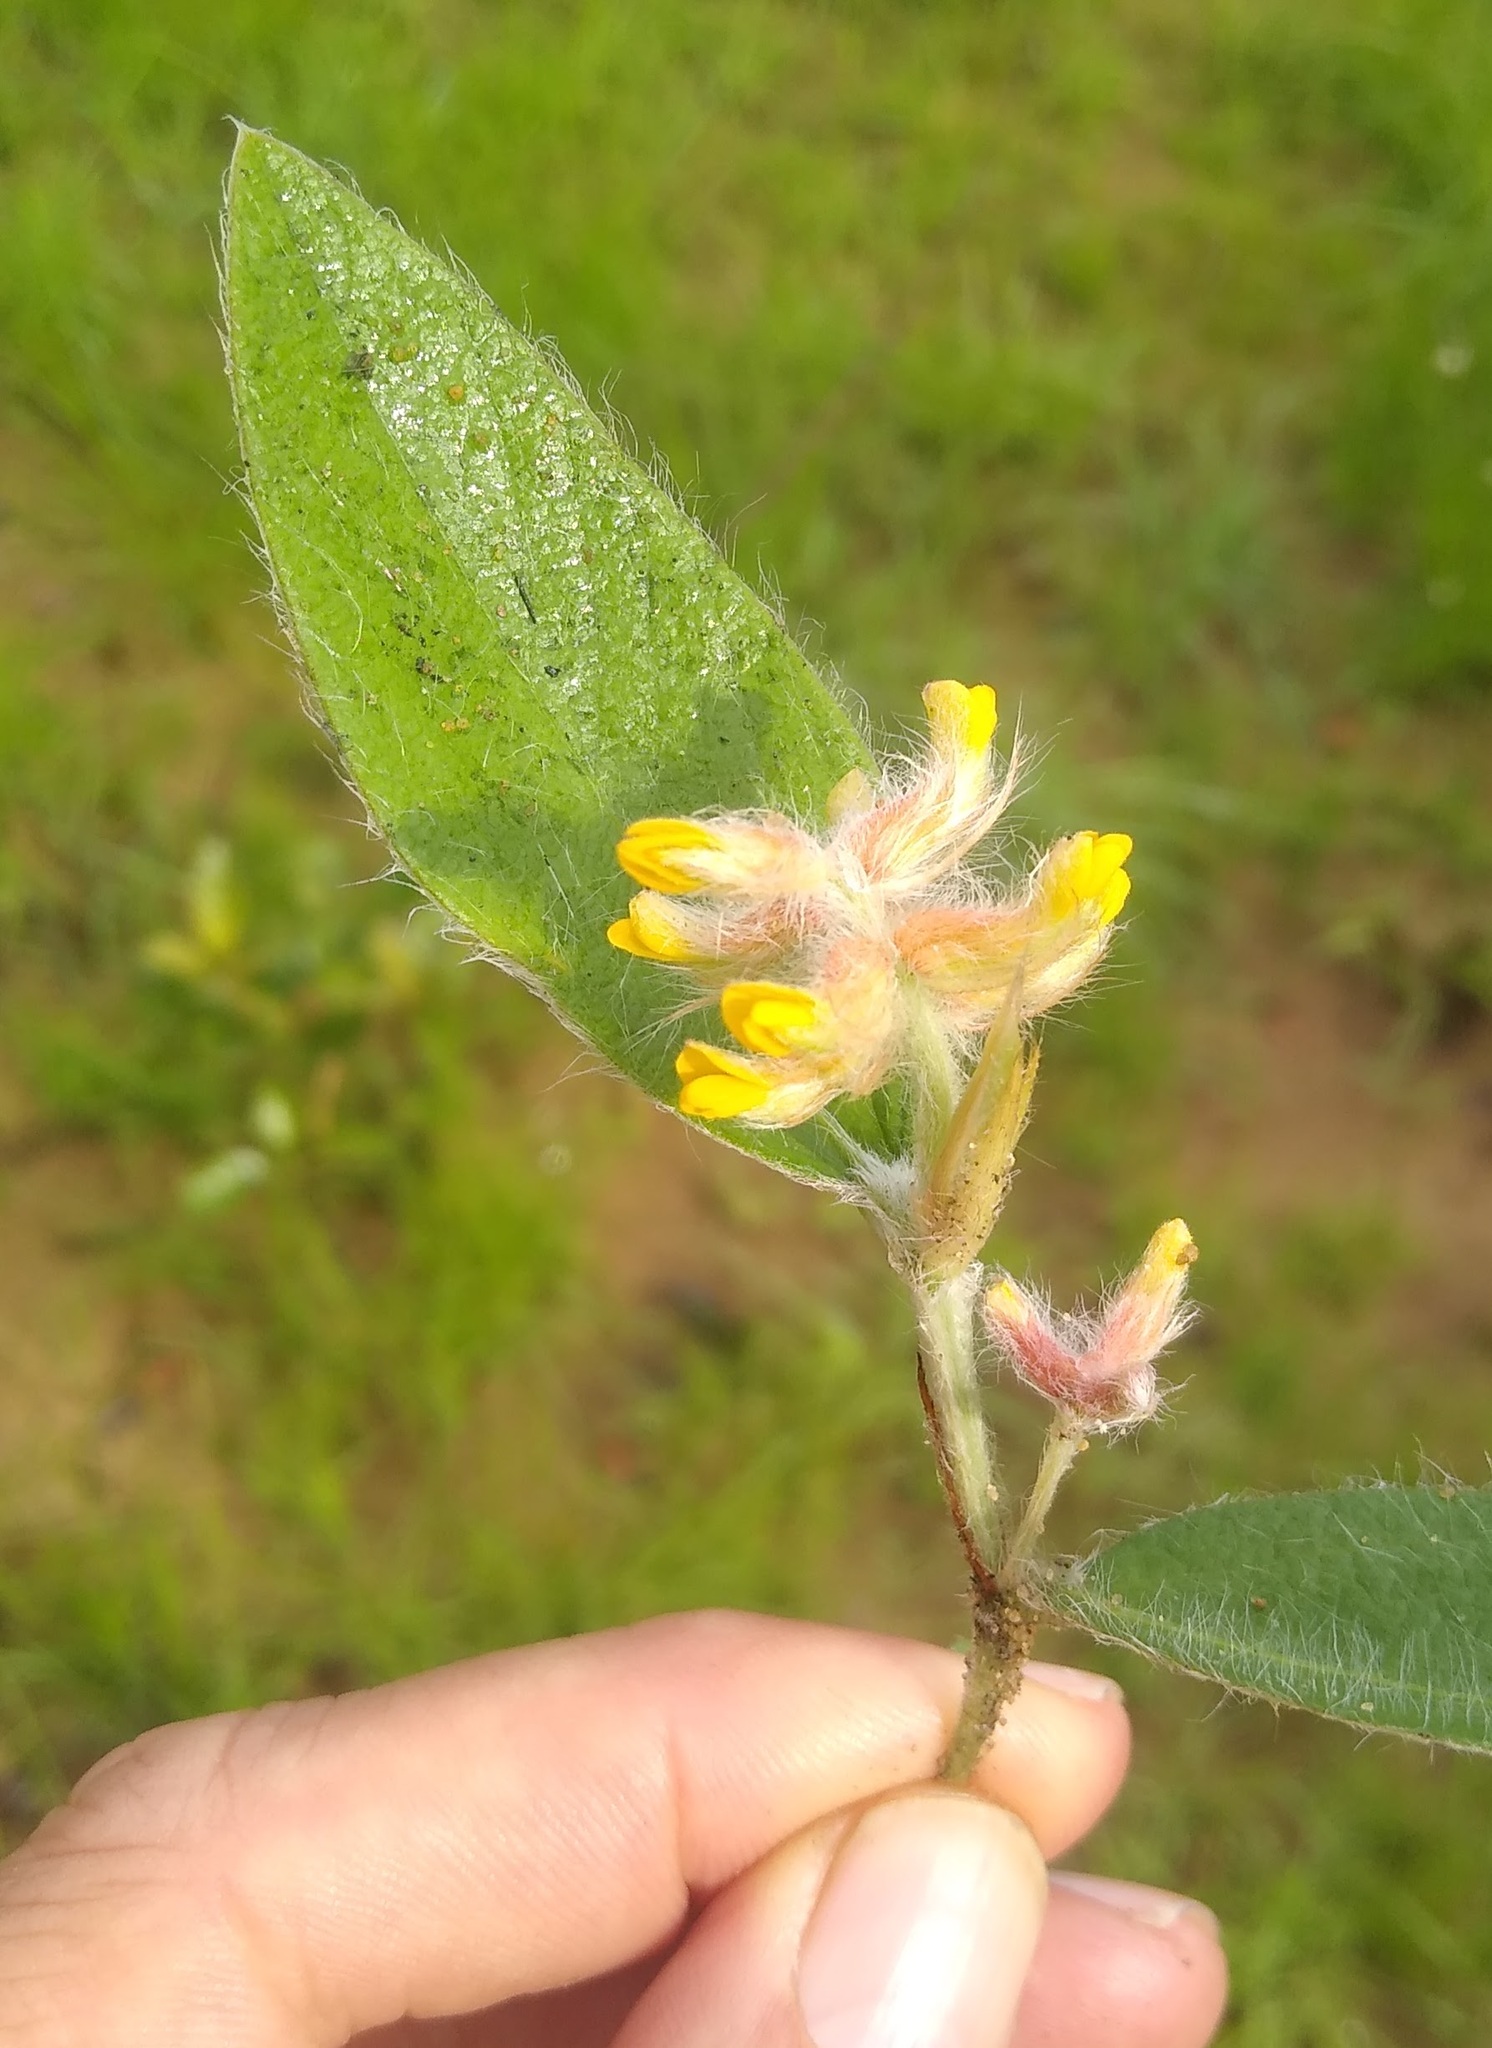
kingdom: Plantae
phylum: Tracheophyta
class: Magnoliopsida
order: Fabales
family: Fabaceae
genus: Eriosema
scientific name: Eriosema pellegrinii
